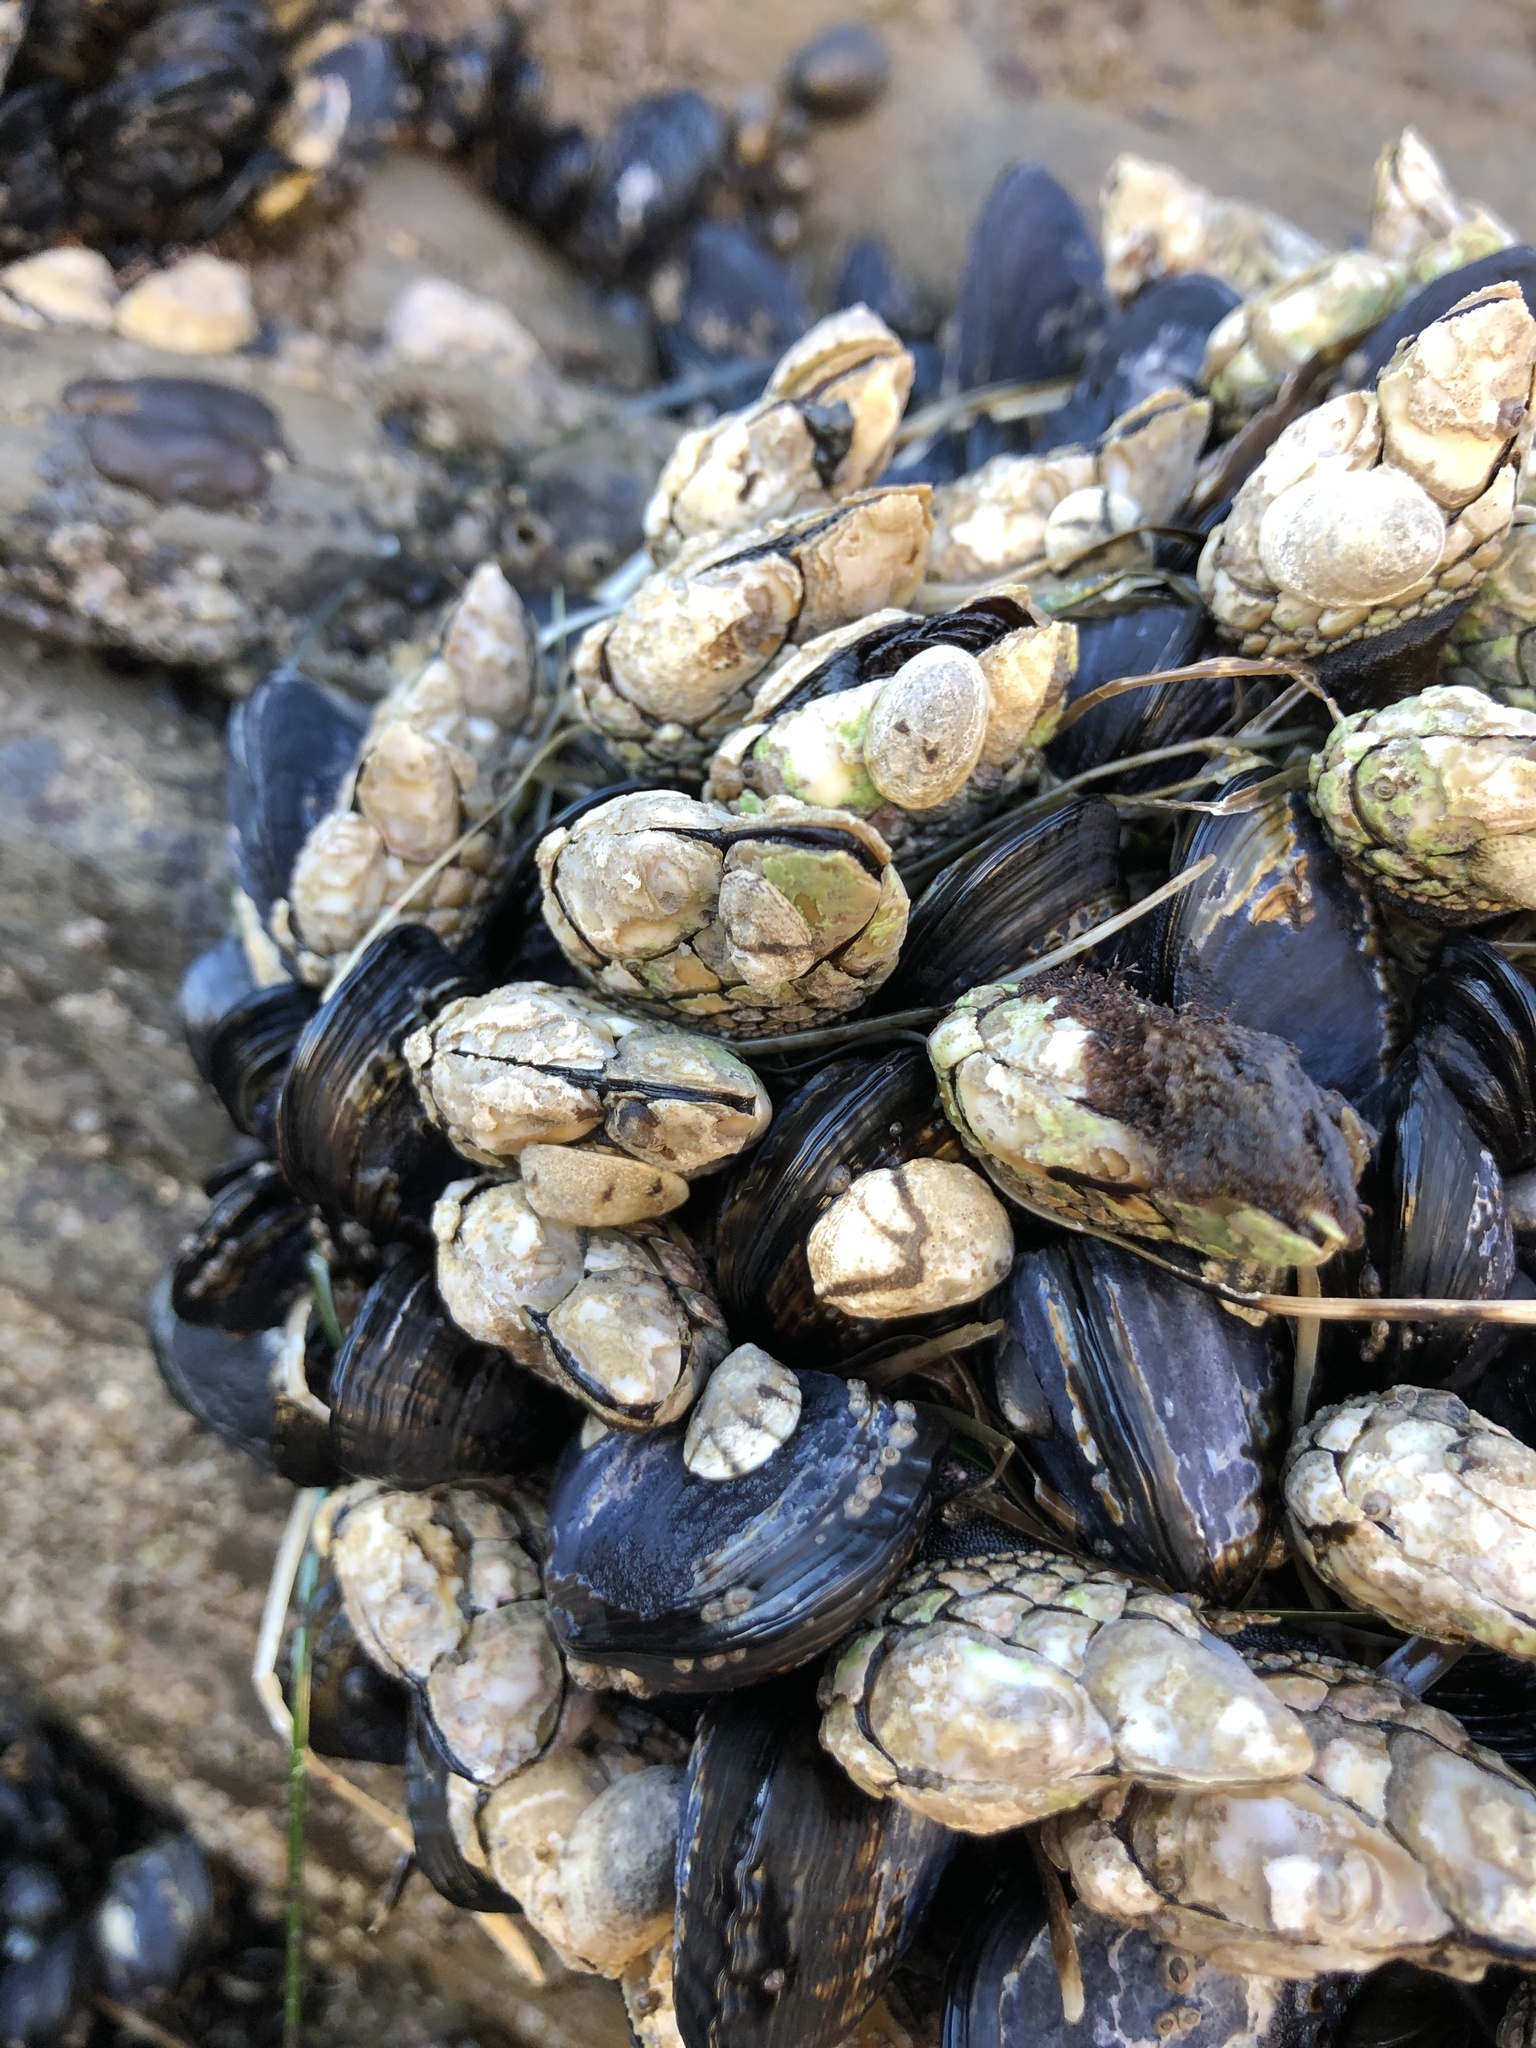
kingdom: Animalia
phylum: Arthropoda
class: Maxillopoda
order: Pedunculata
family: Pollicipedidae
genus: Pollicipes
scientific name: Pollicipes polymerus
